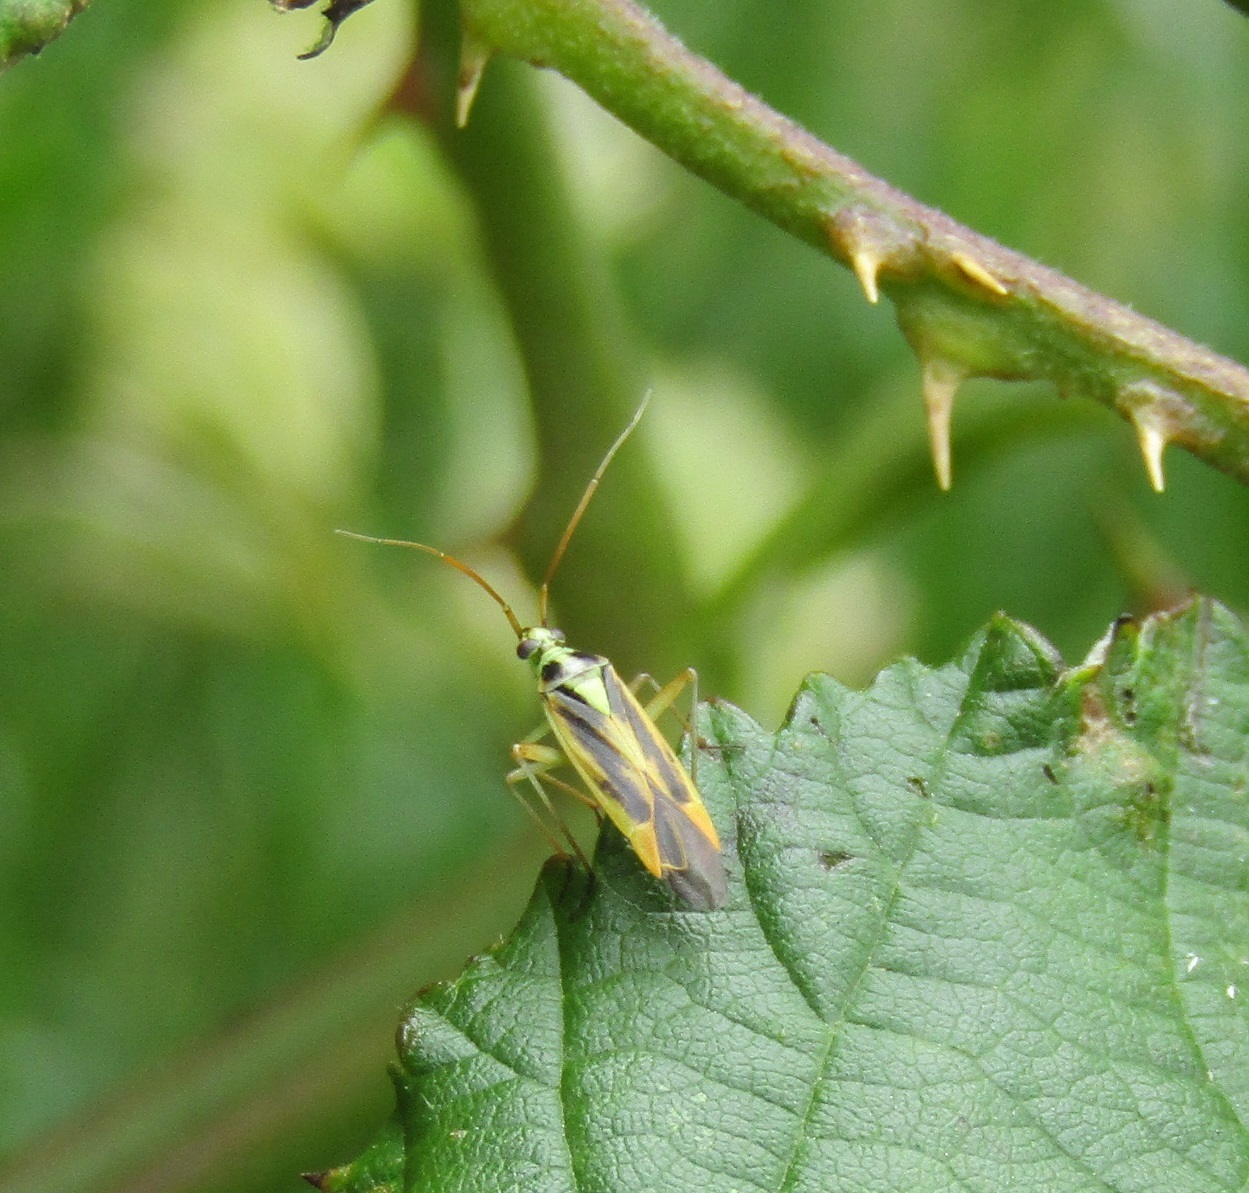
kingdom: Animalia
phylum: Arthropoda
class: Insecta
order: Hemiptera
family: Miridae
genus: Stenotus
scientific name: Stenotus binotatus
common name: Plant bug
